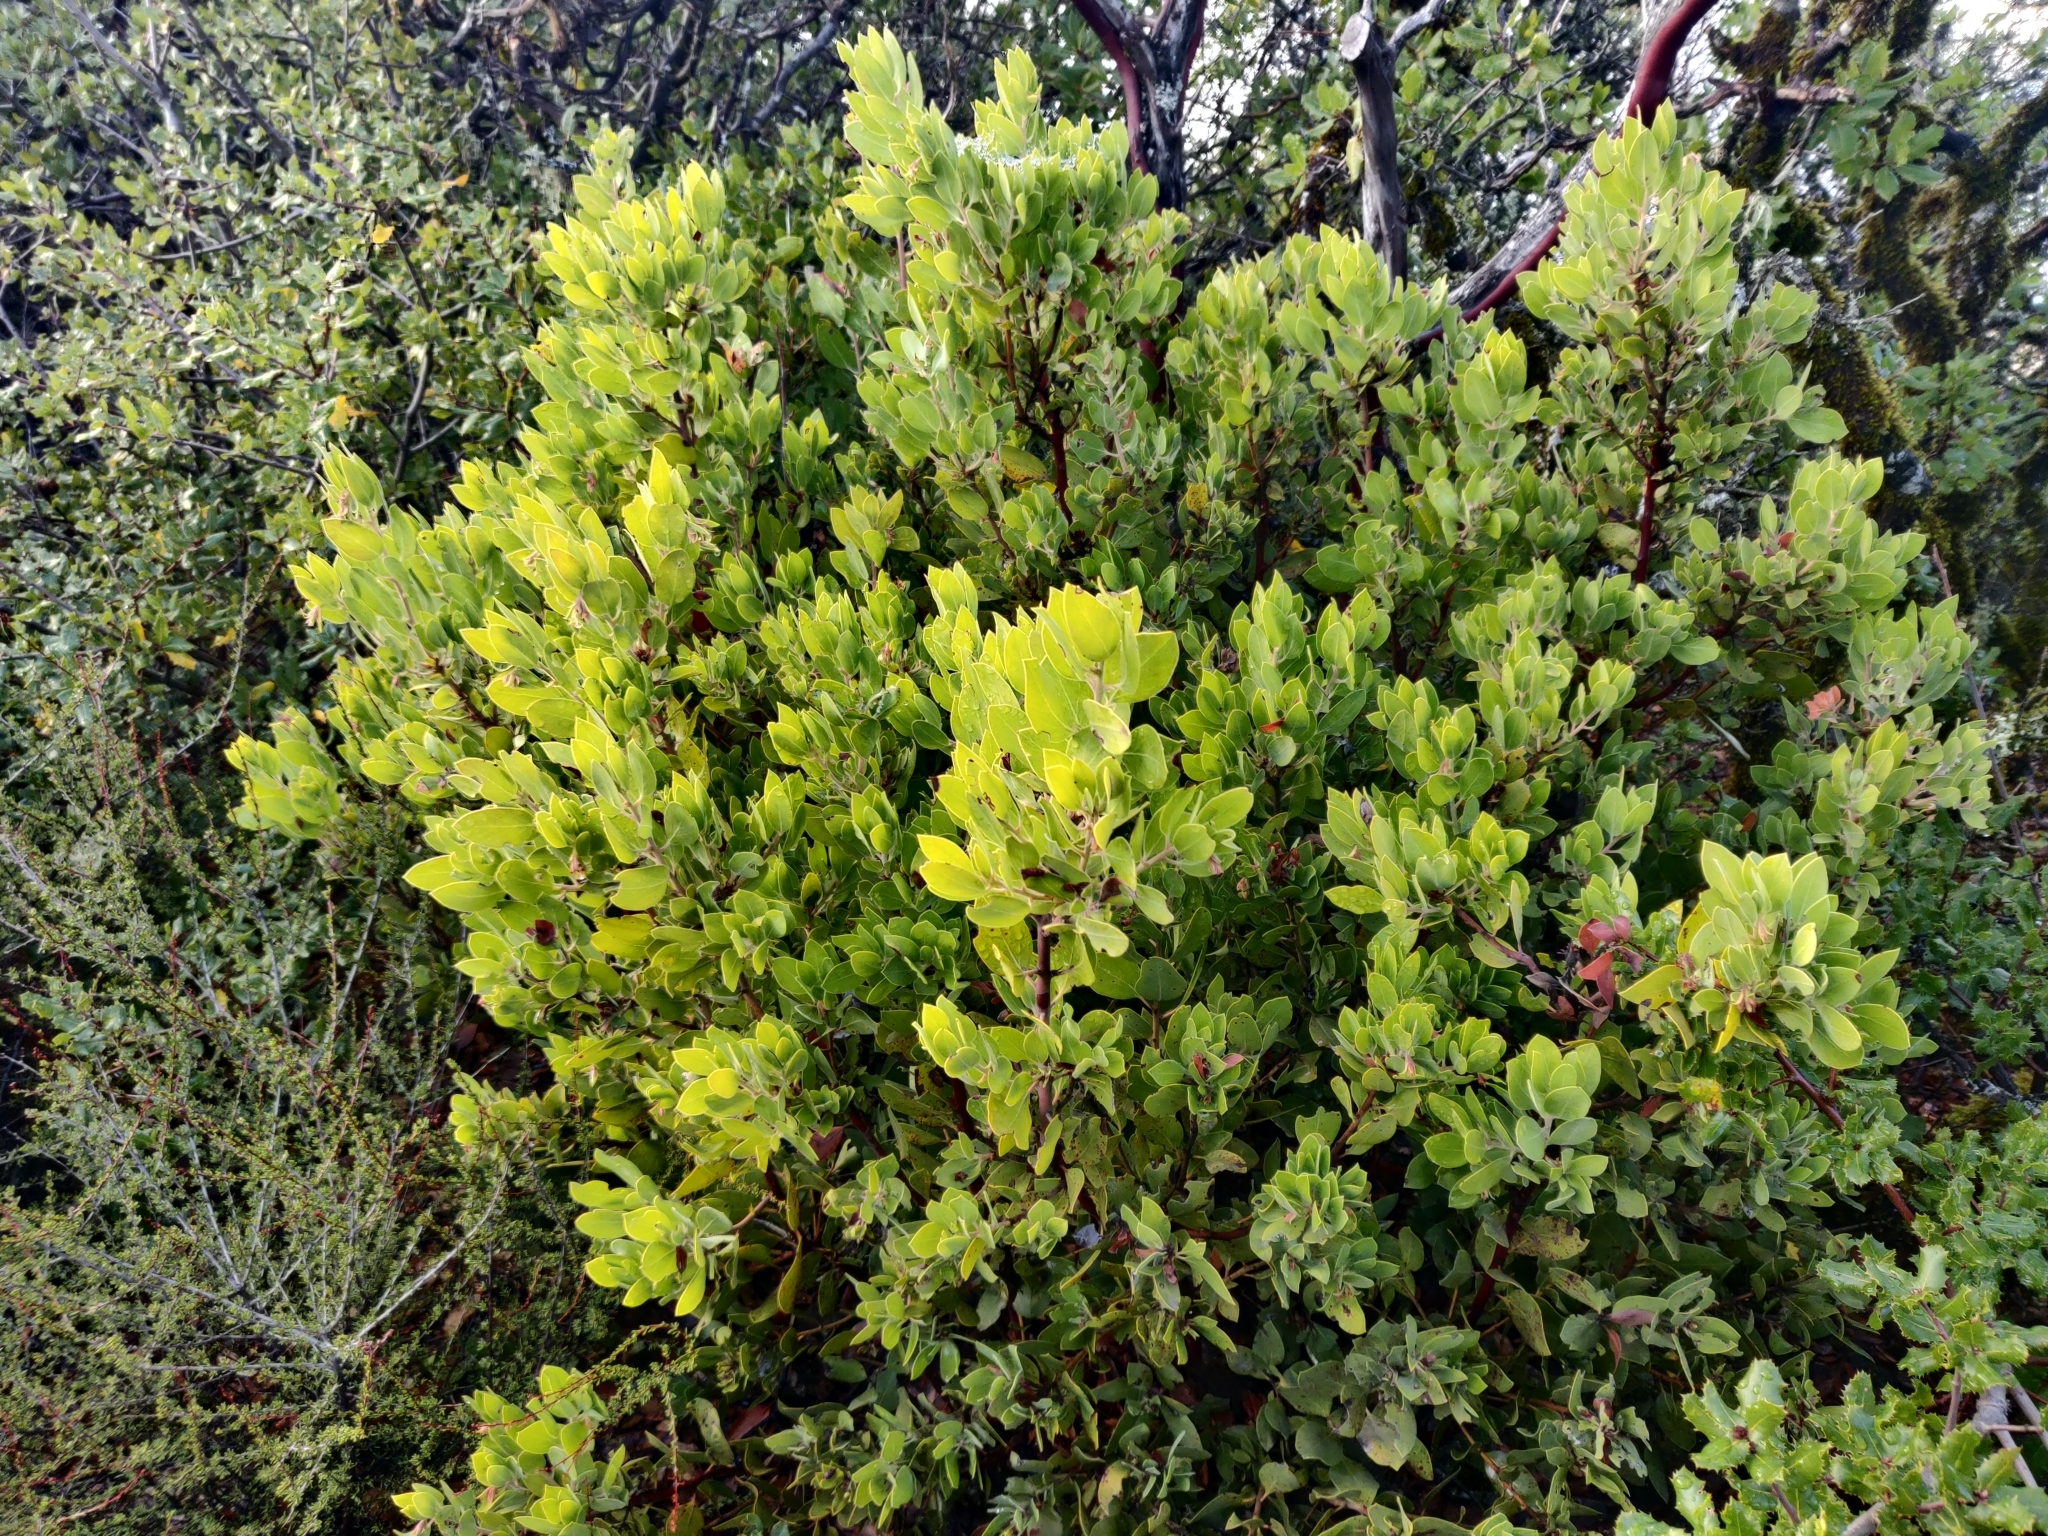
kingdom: Plantae
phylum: Tracheophyta
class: Magnoliopsida
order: Ericales
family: Ericaceae
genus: Arctostaphylos
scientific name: Arctostaphylos glandulosa
